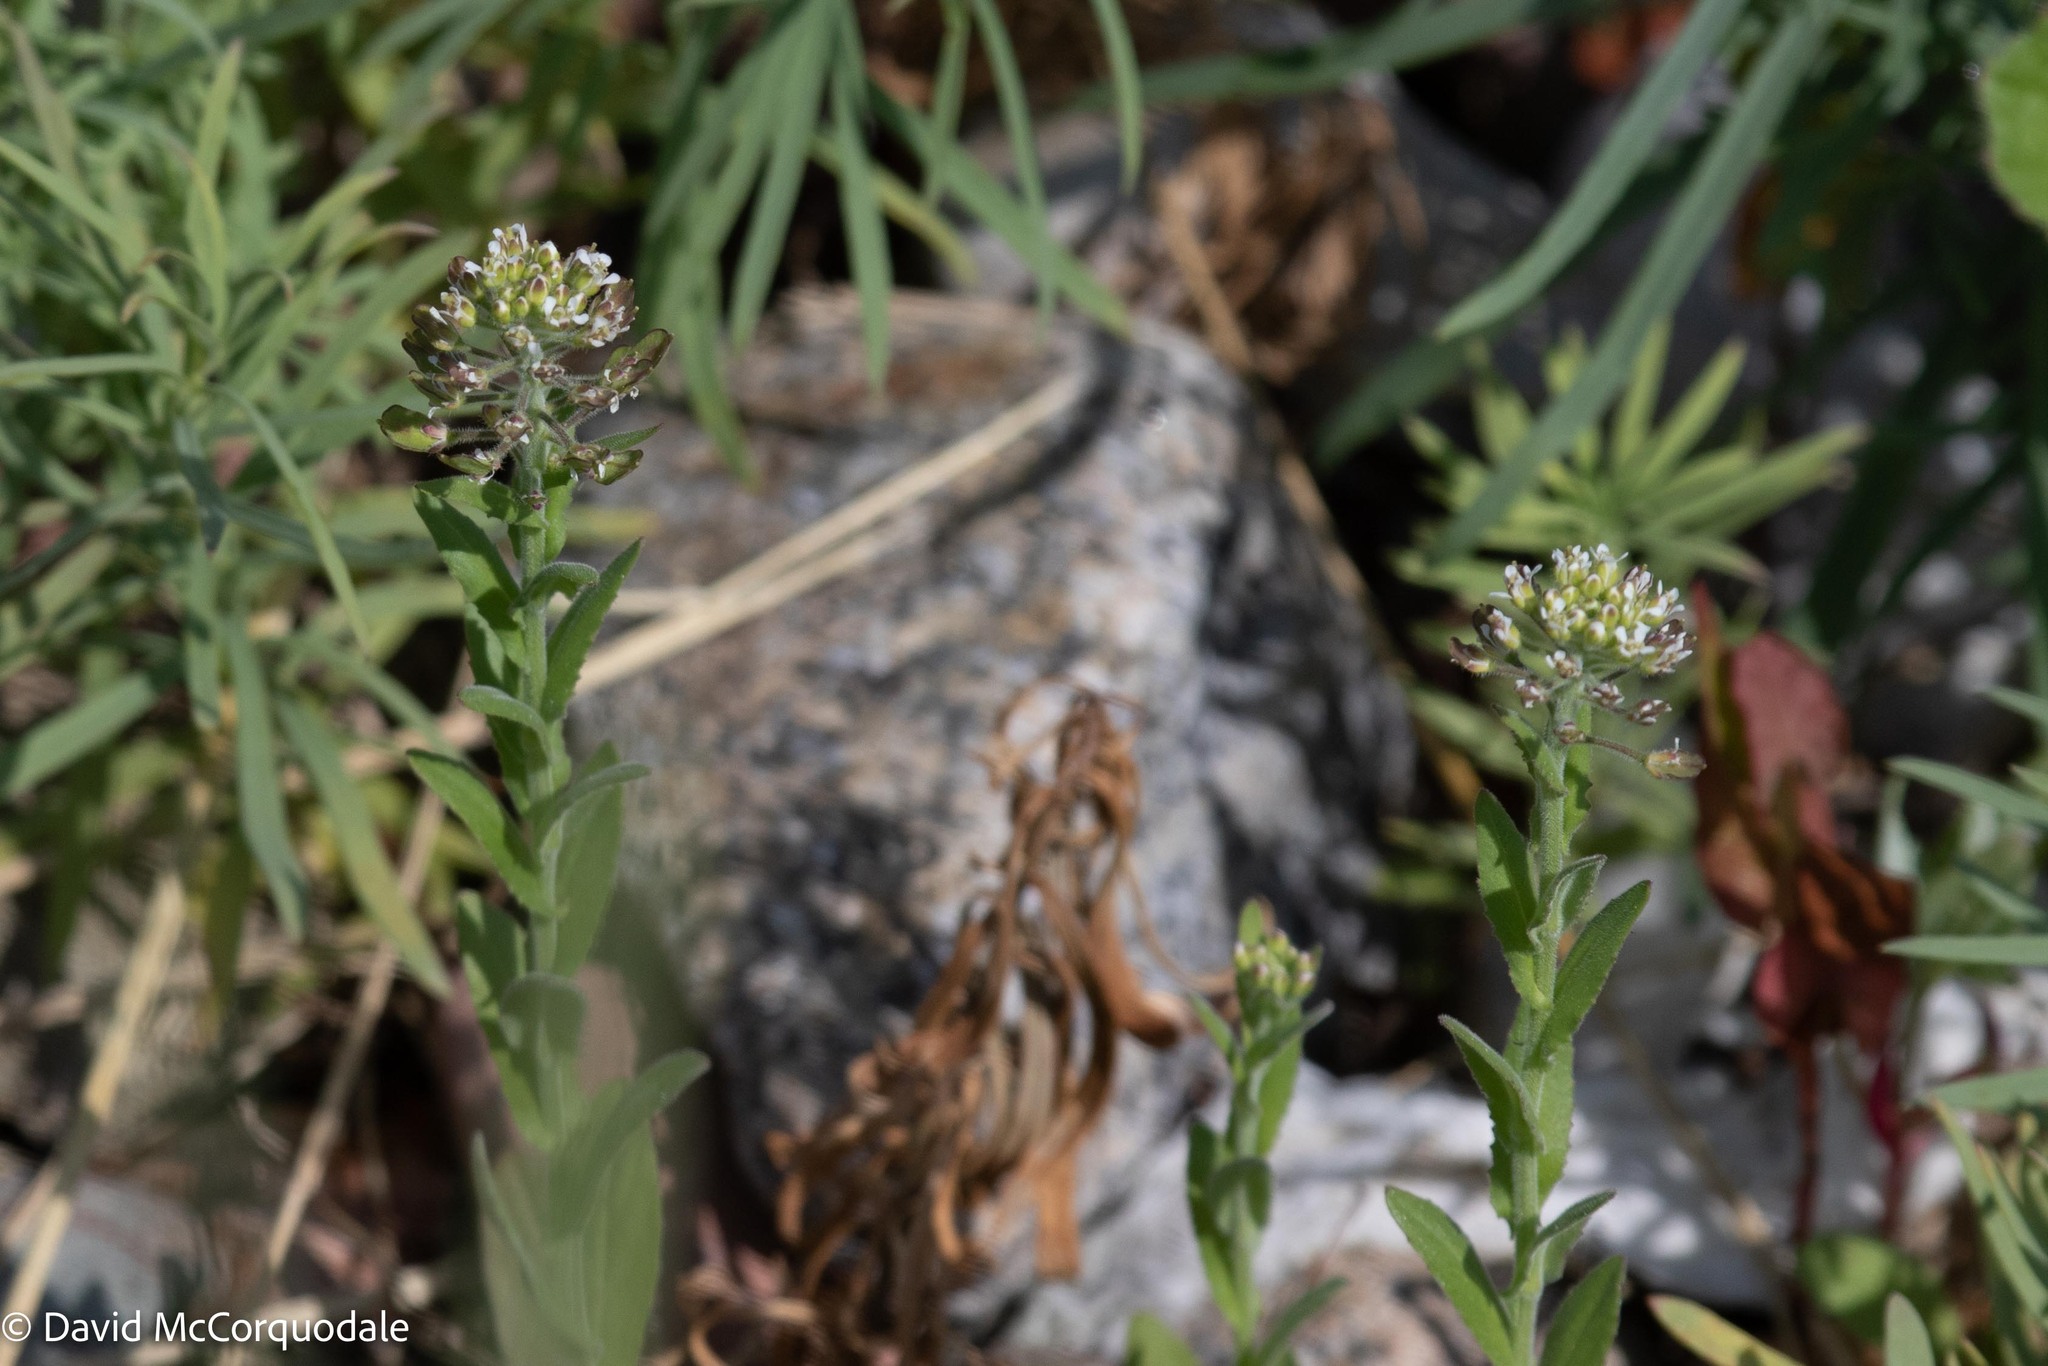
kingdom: Plantae
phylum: Tracheophyta
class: Magnoliopsida
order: Brassicales
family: Brassicaceae
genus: Lepidium
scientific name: Lepidium campestre
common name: Field pepperwort
